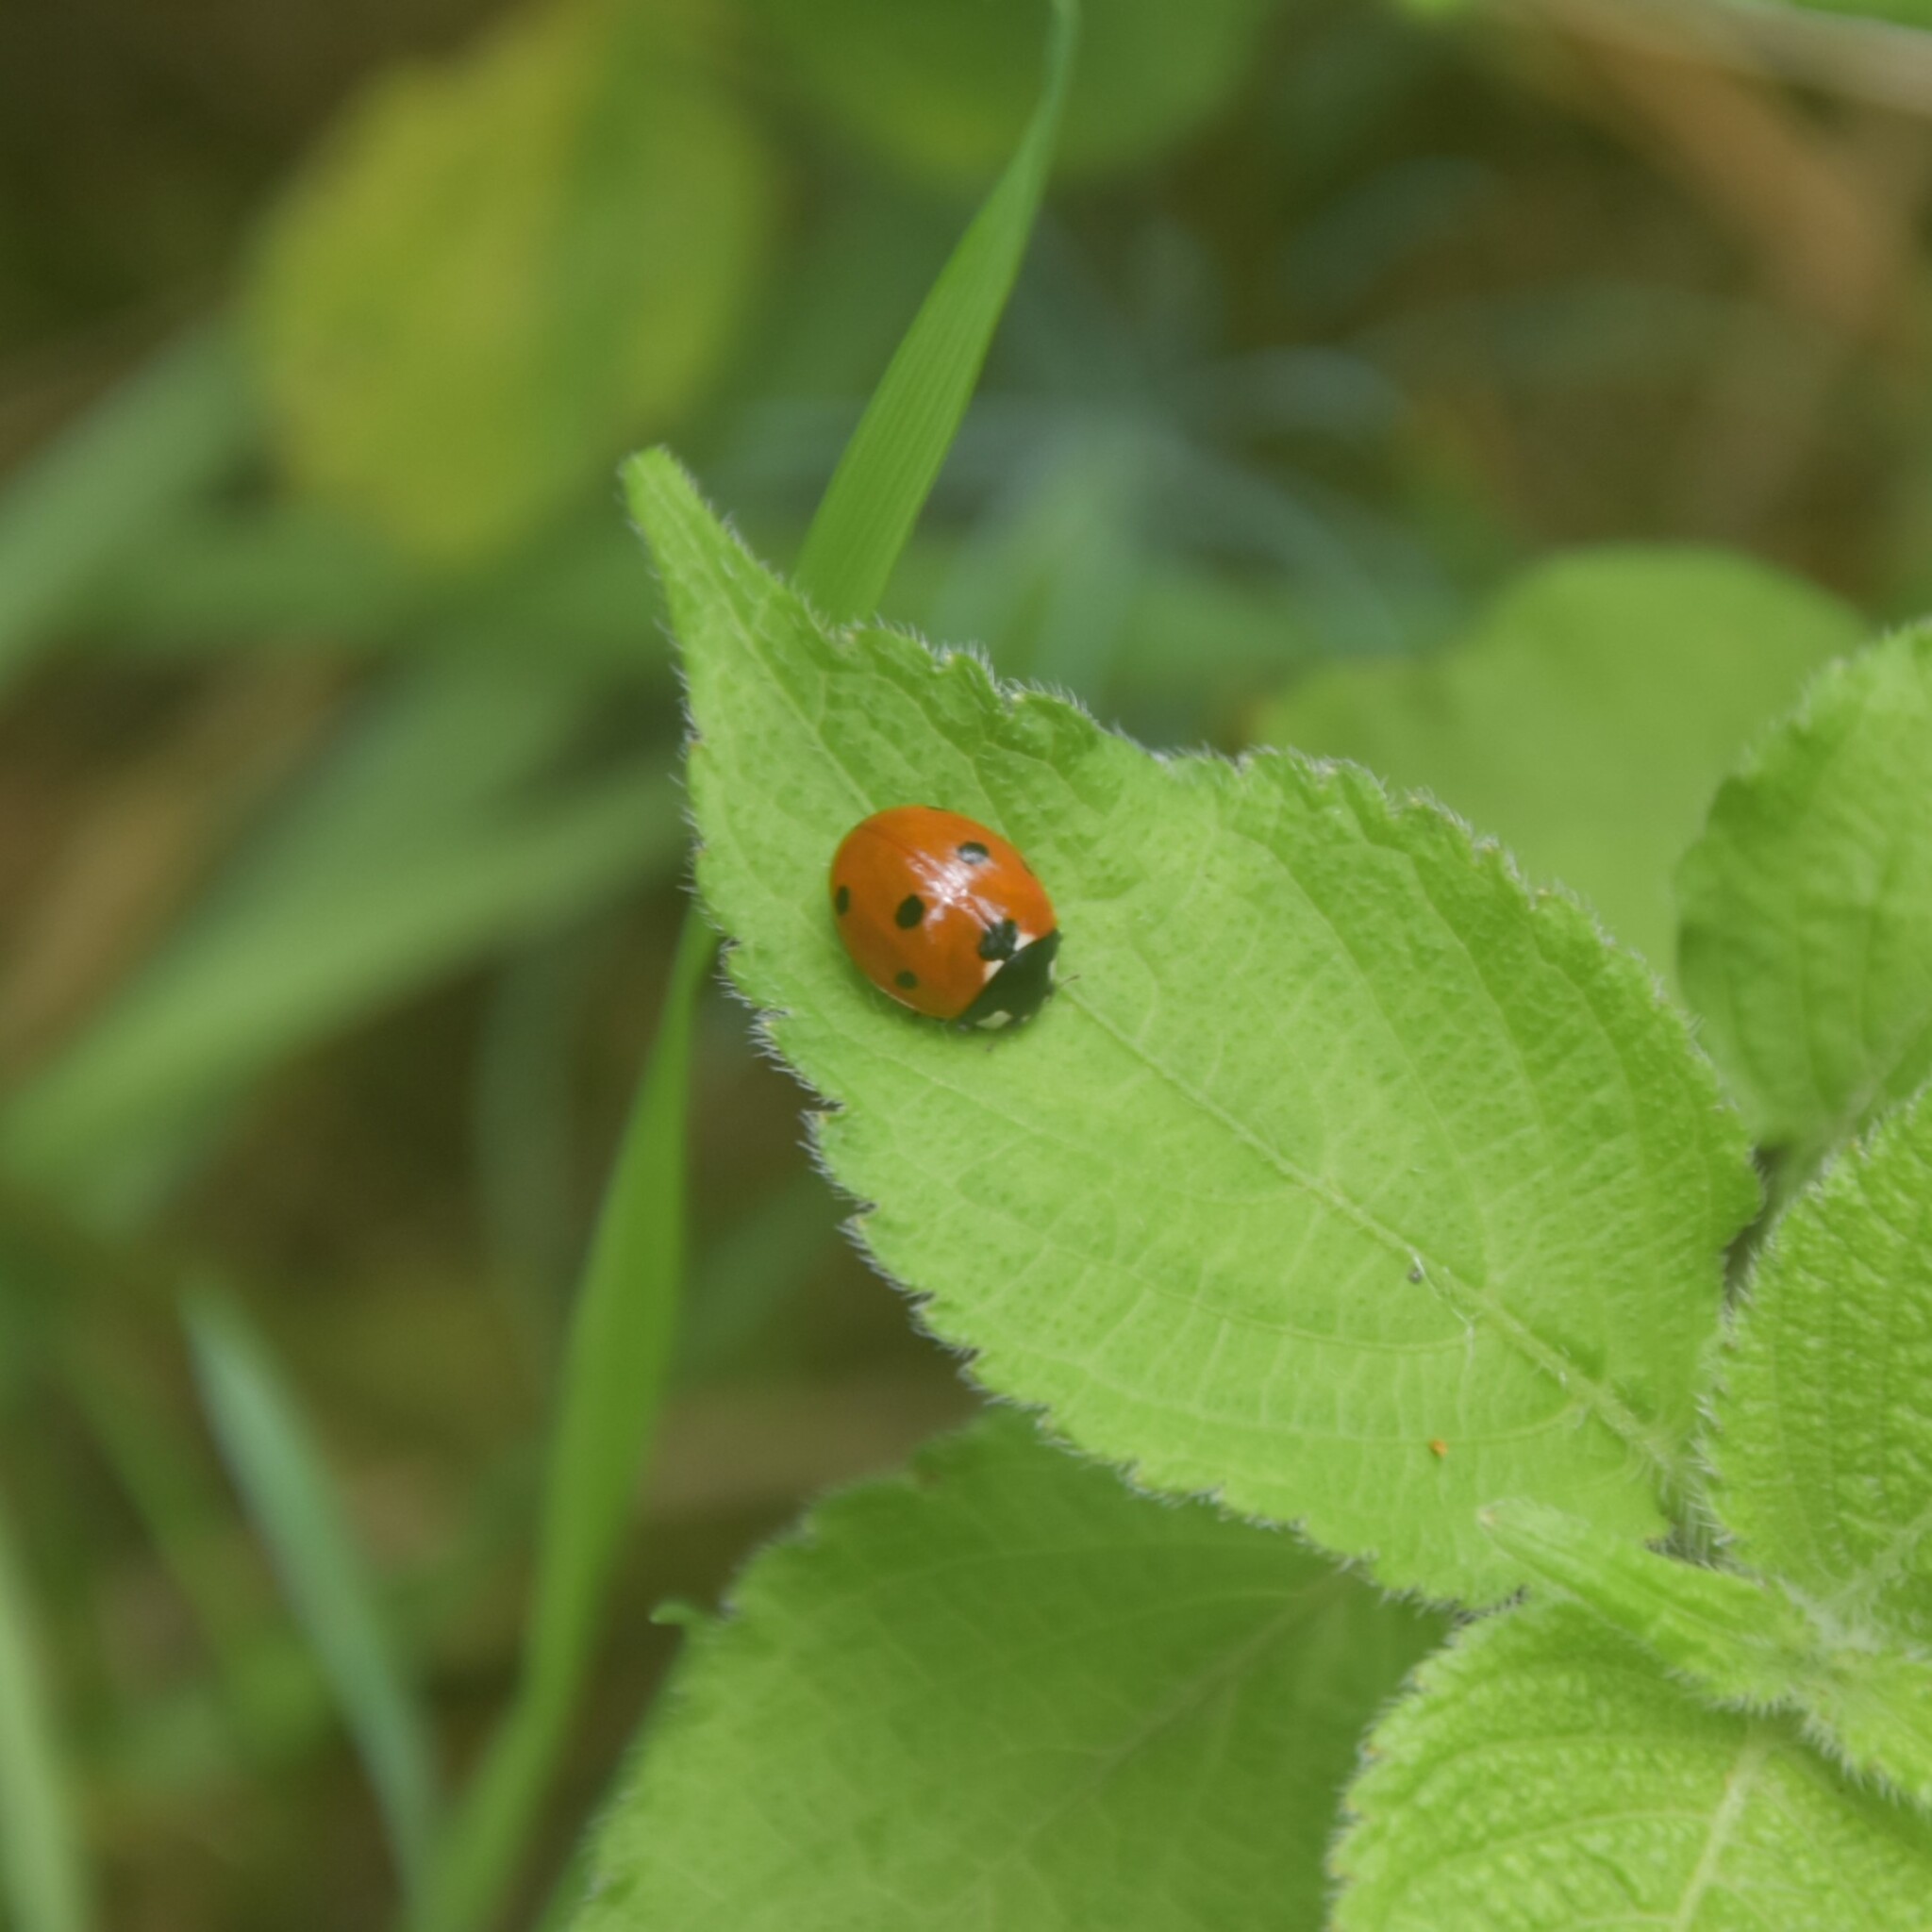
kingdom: Animalia
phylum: Arthropoda
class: Insecta
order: Coleoptera
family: Coccinellidae
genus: Coccinella
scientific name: Coccinella septempunctata
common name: Sevenspotted lady beetle
